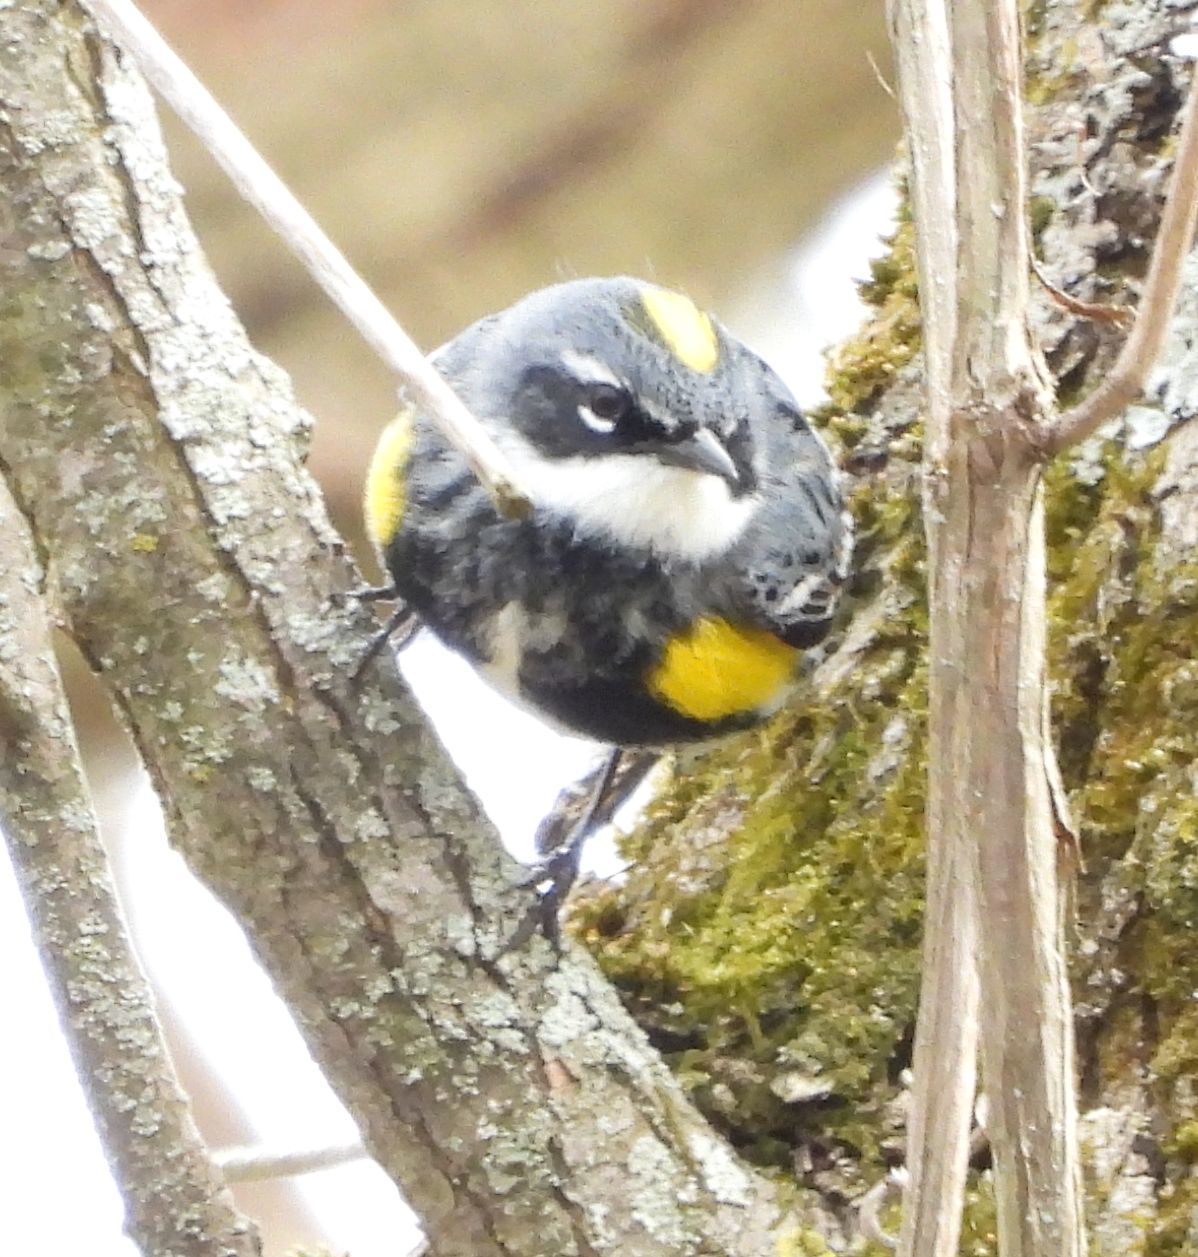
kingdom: Animalia
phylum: Chordata
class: Aves
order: Passeriformes
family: Parulidae
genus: Setophaga
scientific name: Setophaga coronata
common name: Myrtle warbler
